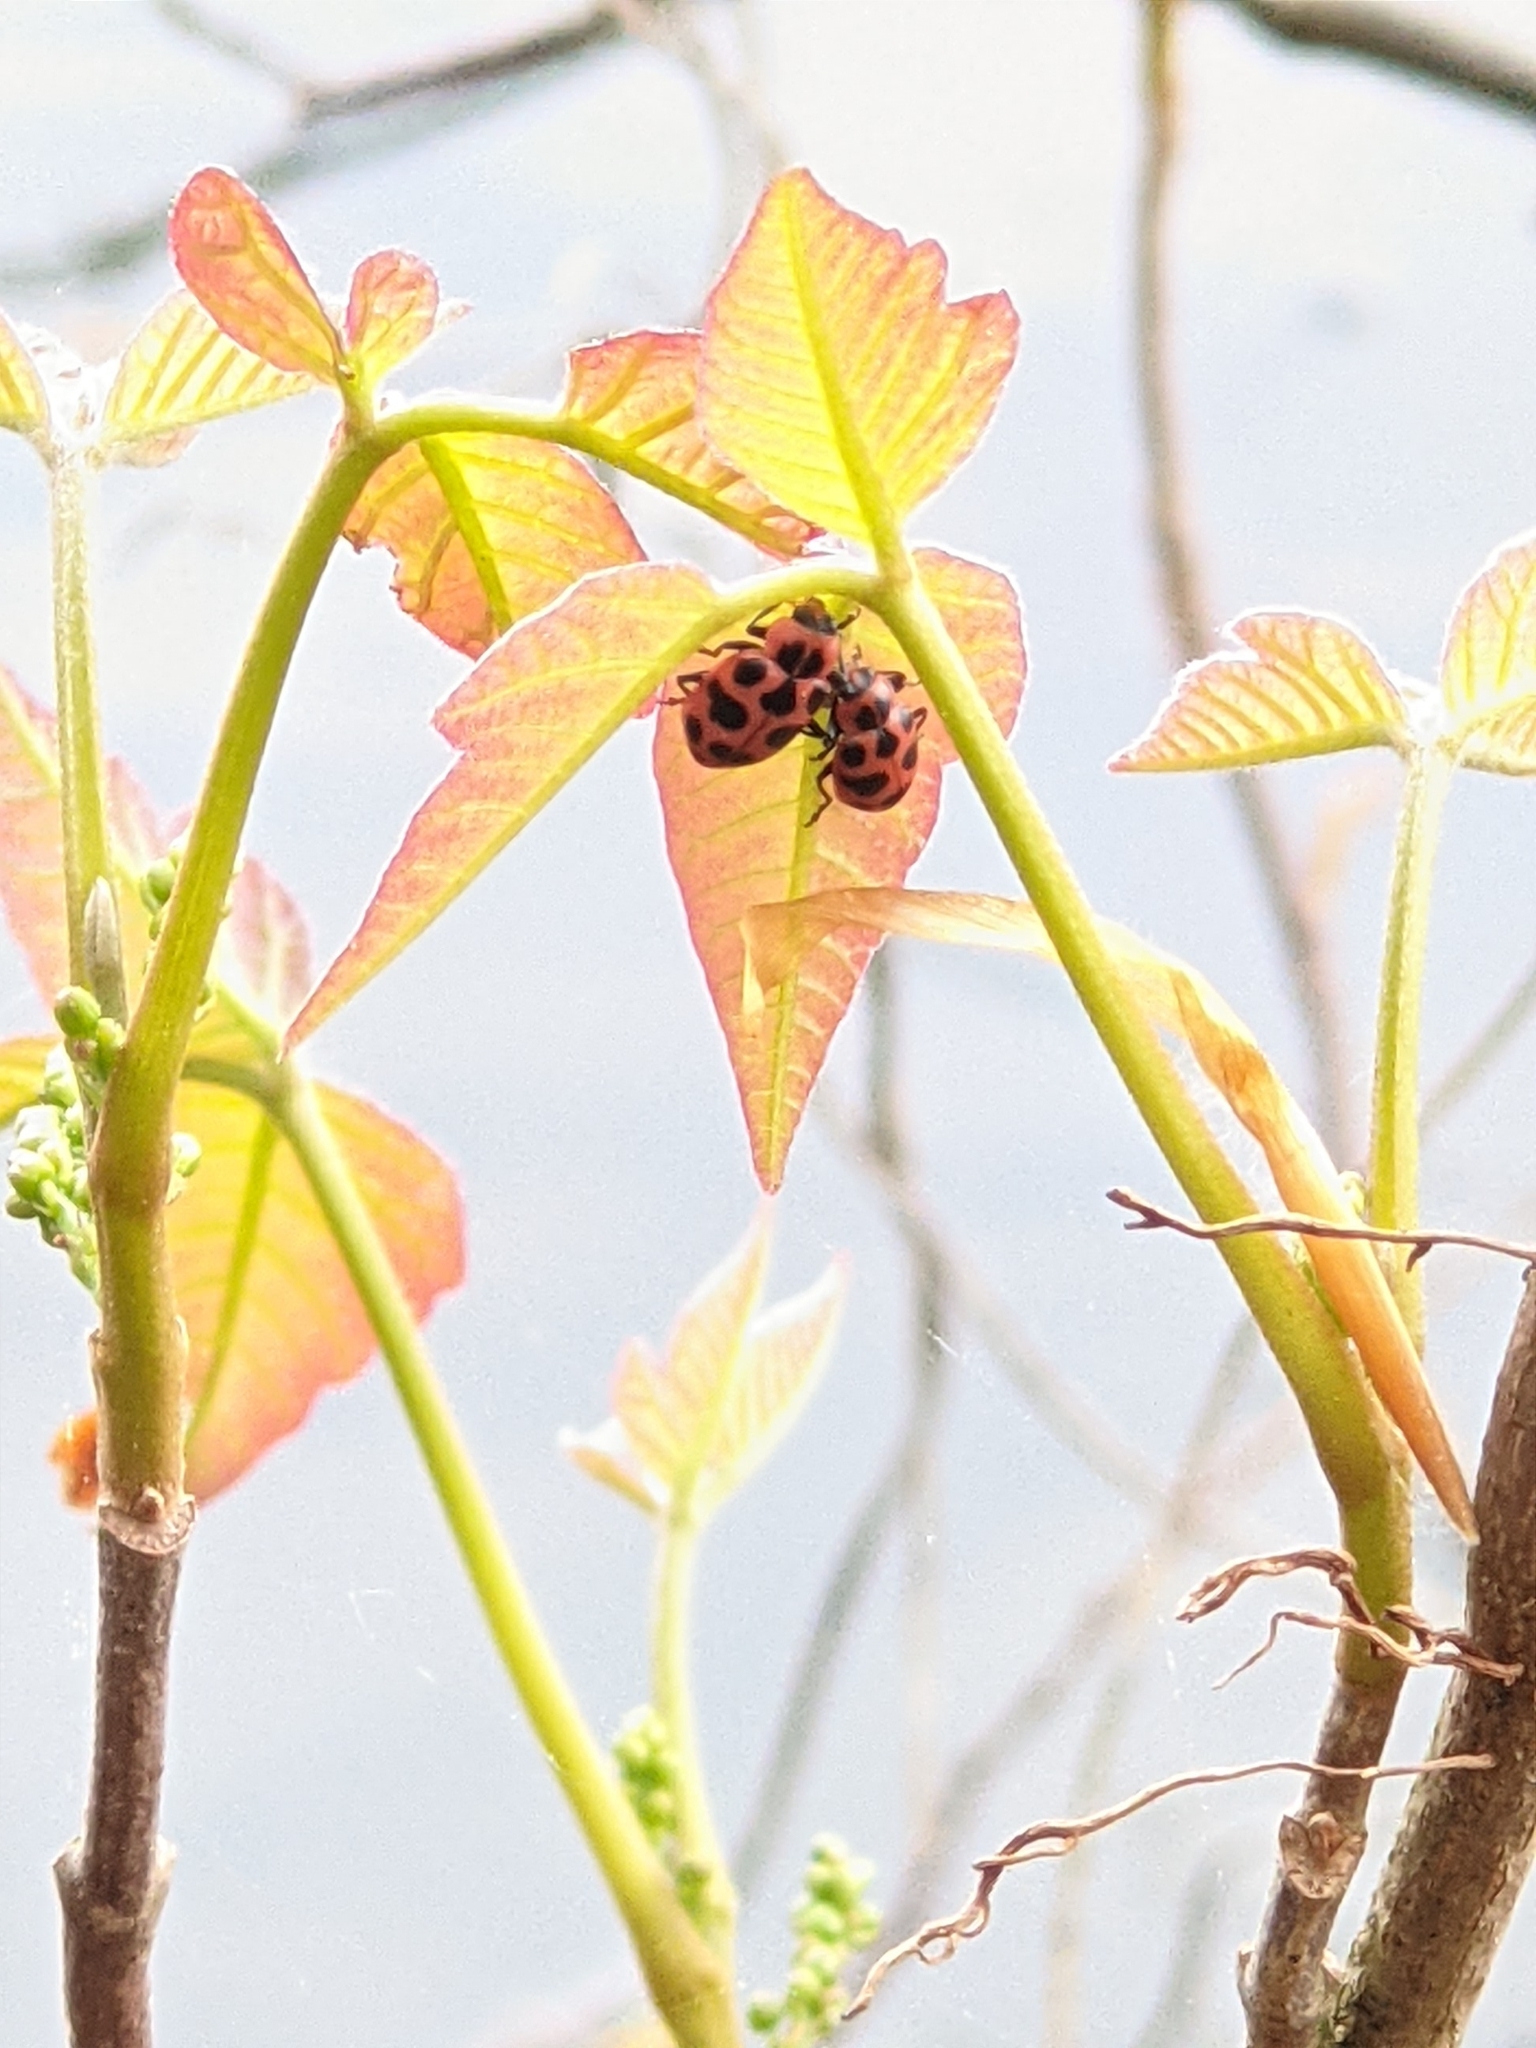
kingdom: Animalia
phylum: Arthropoda
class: Insecta
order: Coleoptera
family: Coccinellidae
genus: Coleomegilla
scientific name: Coleomegilla maculata
